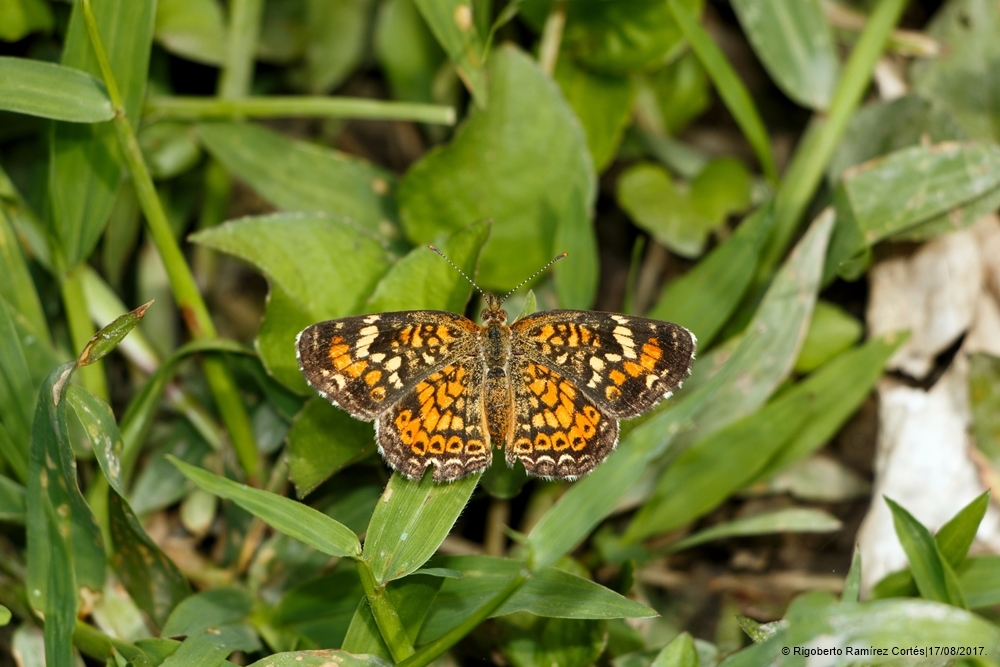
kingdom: Animalia
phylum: Arthropoda
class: Insecta
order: Lepidoptera
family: Nymphalidae
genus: Phyciodes
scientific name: Phyciodes phaon
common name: Phaon crescent
